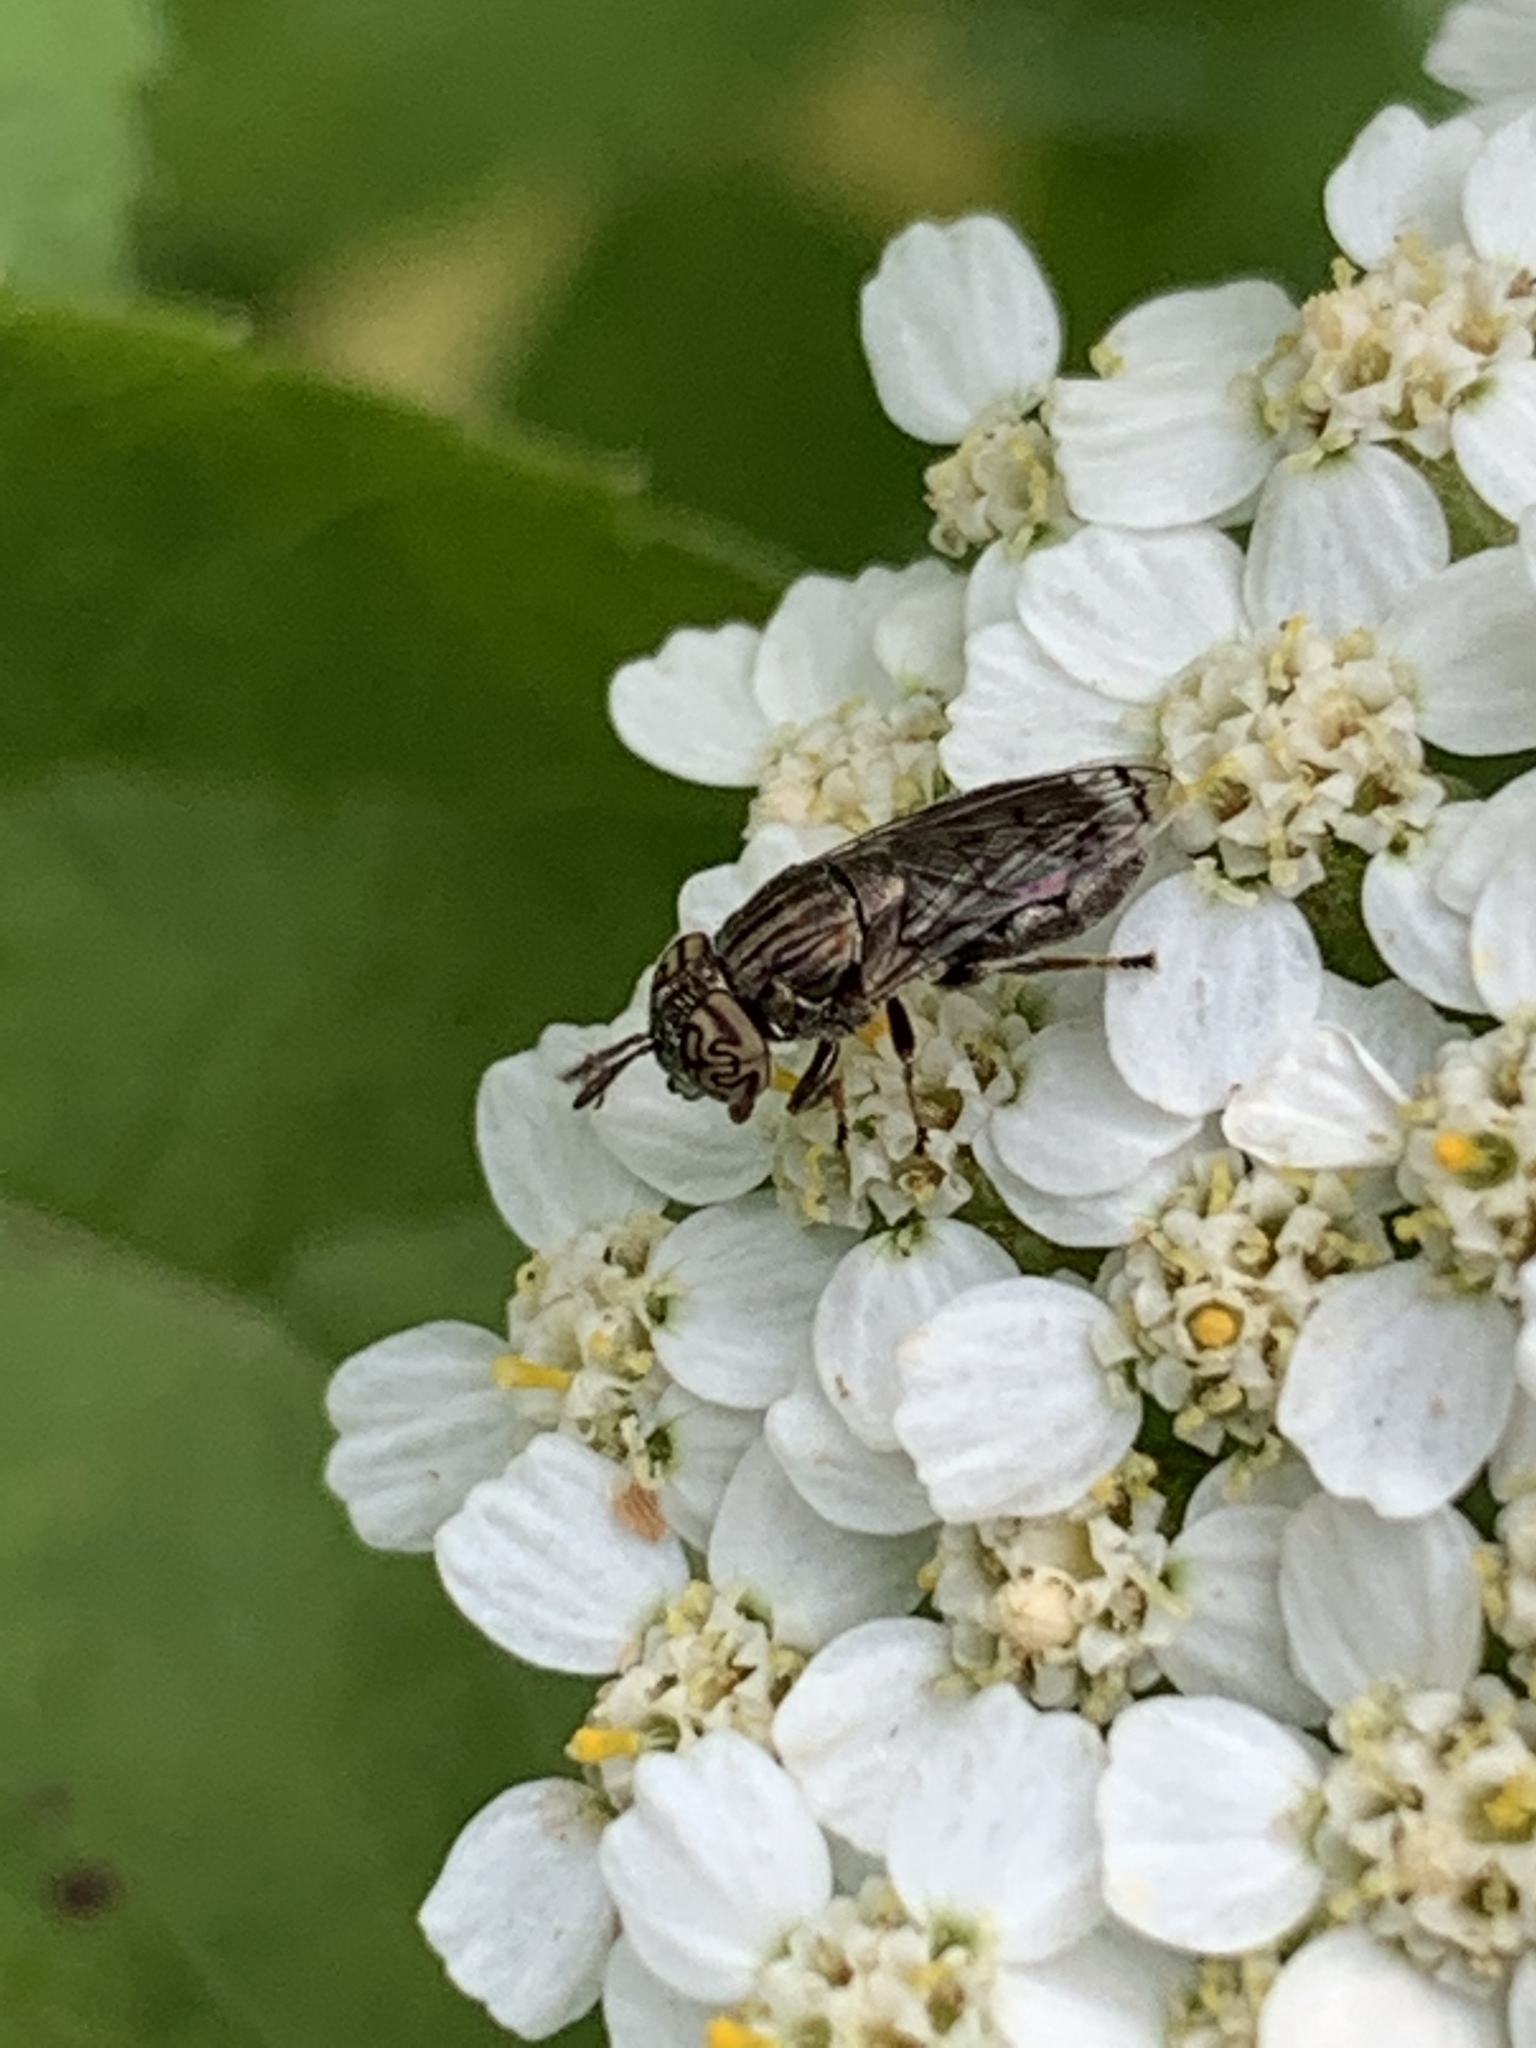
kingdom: Animalia
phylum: Arthropoda
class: Insecta
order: Diptera
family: Syrphidae
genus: Orthonevra
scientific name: Orthonevra nitida
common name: Wavy mucksucker
